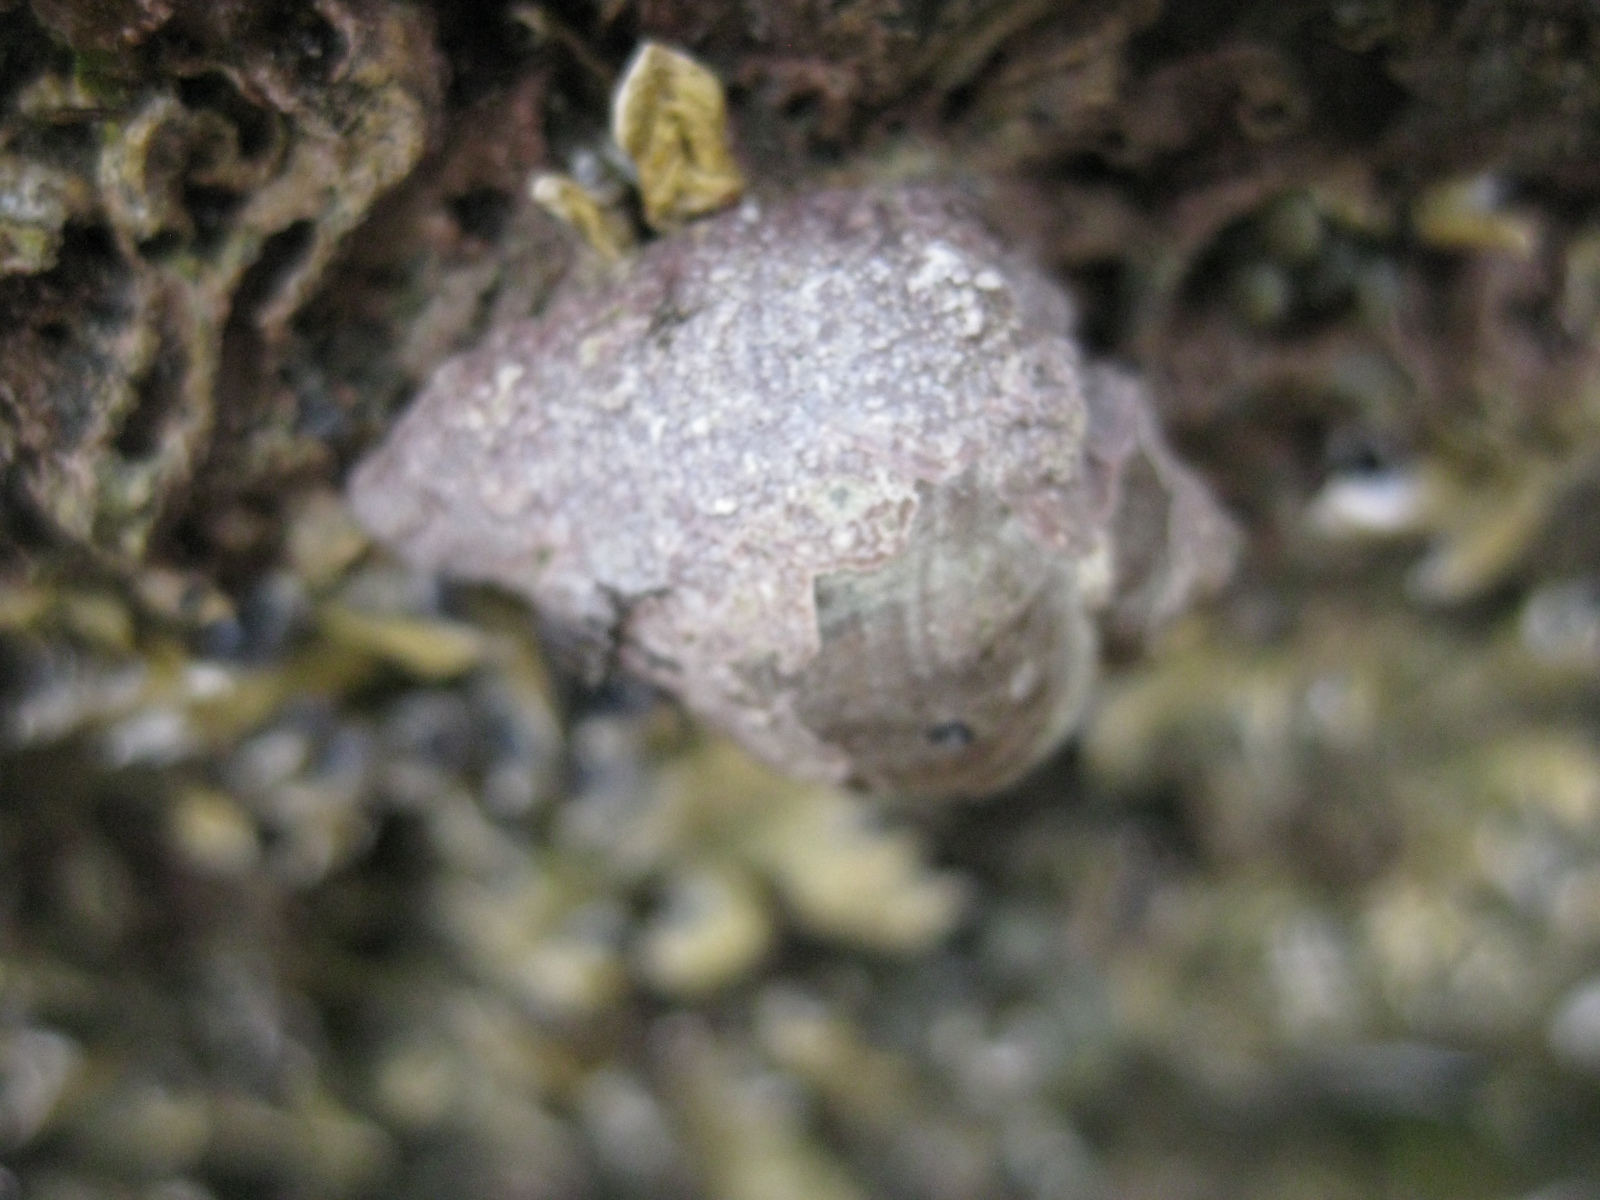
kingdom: Animalia
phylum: Mollusca
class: Gastropoda
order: Neogastropoda
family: Muricidae
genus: Haustrum
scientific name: Haustrum haustorium
